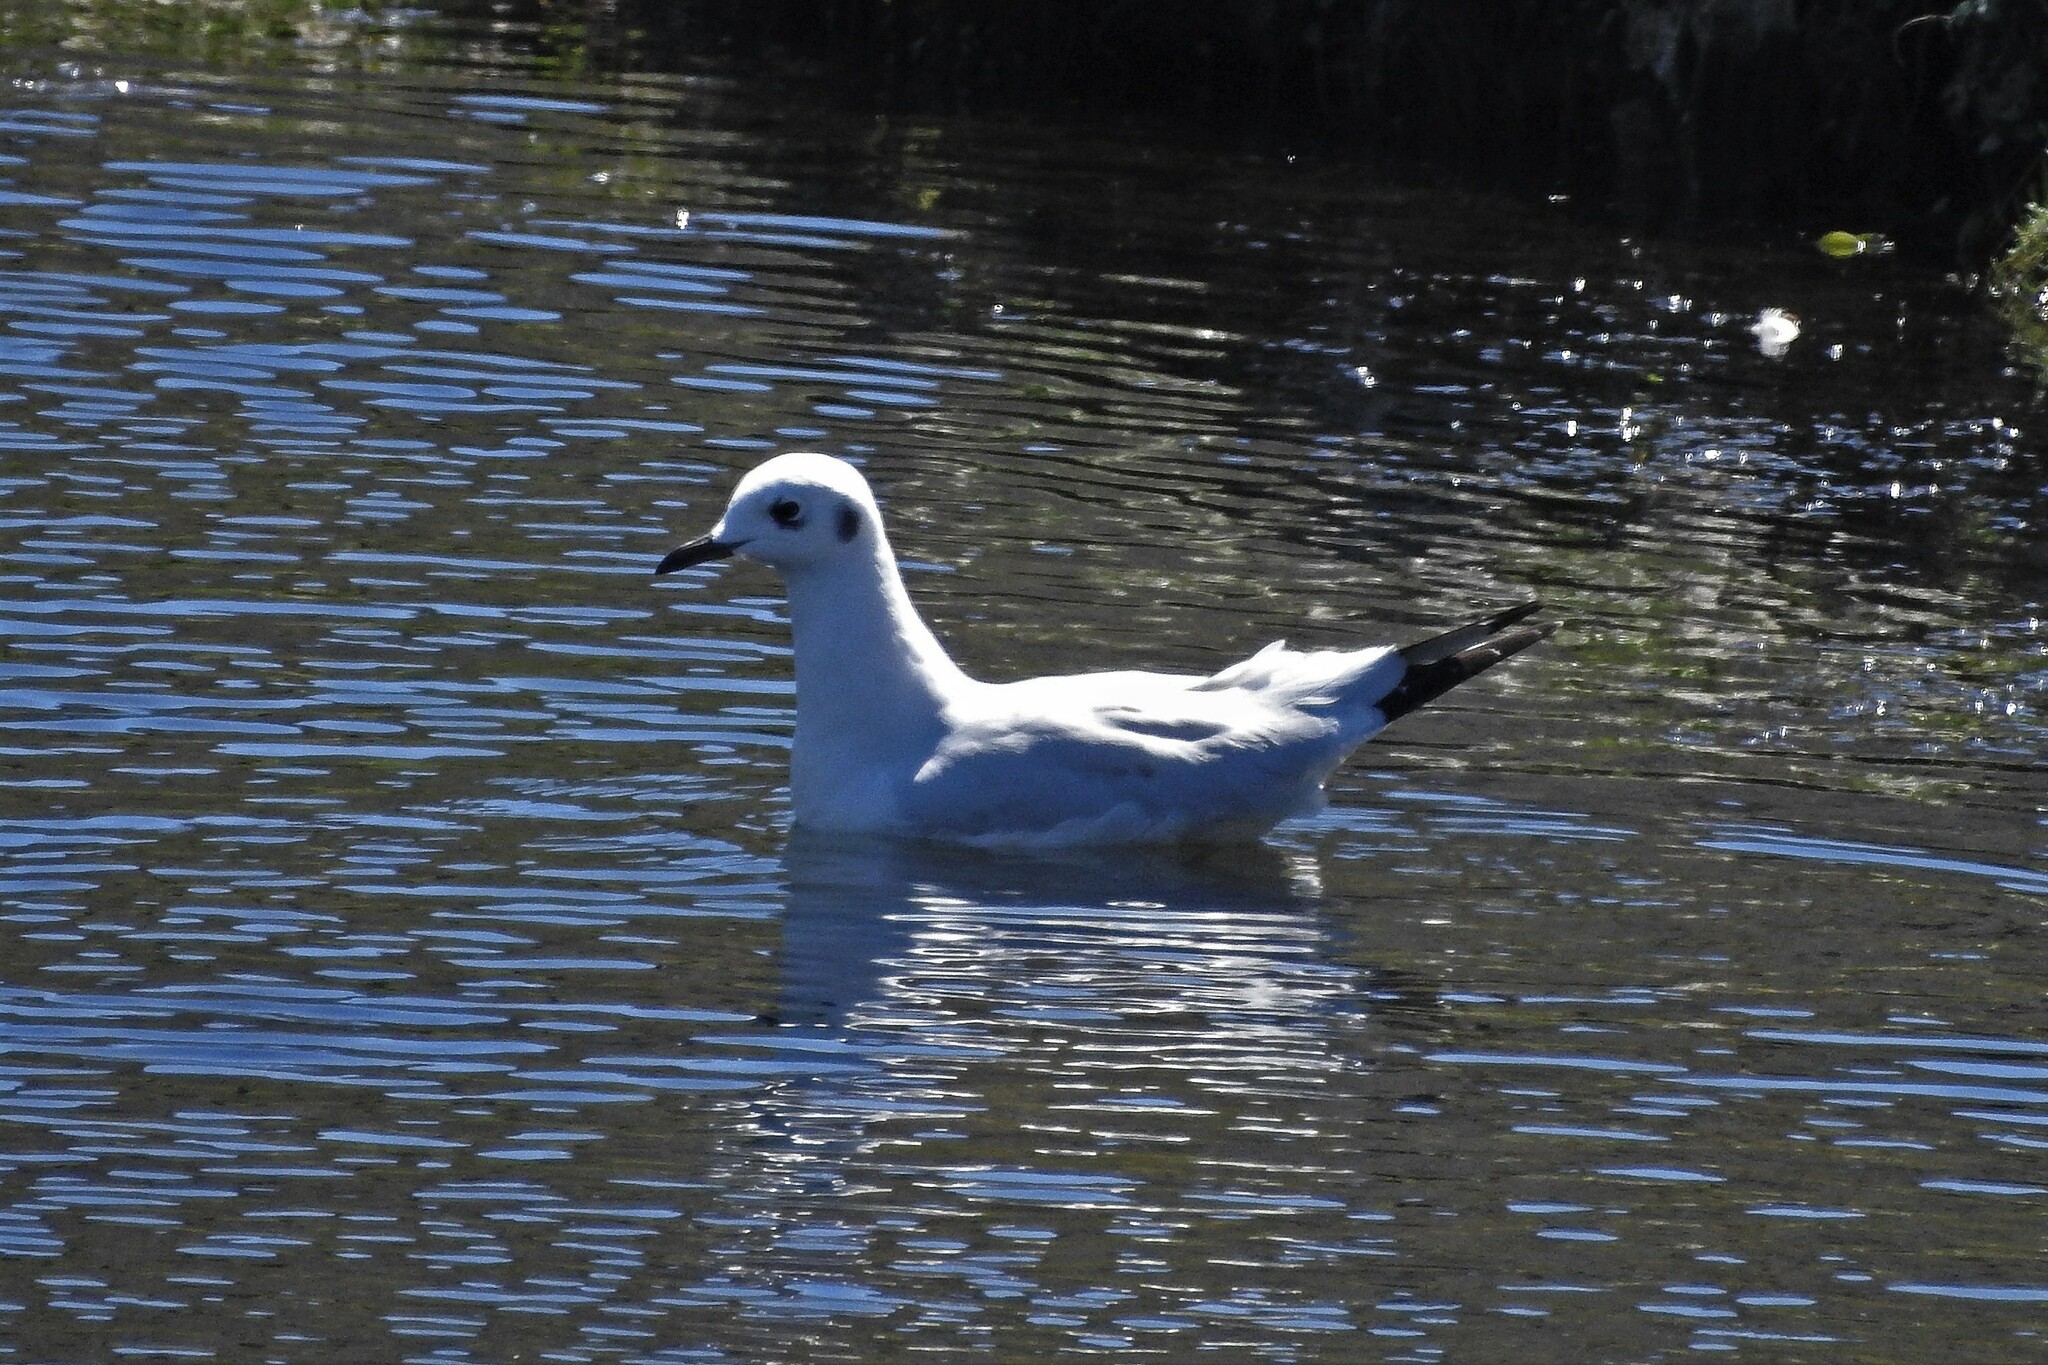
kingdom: Animalia
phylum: Chordata
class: Aves
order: Charadriiformes
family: Laridae
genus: Chroicocephalus
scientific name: Chroicocephalus serranus
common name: Andean gull
